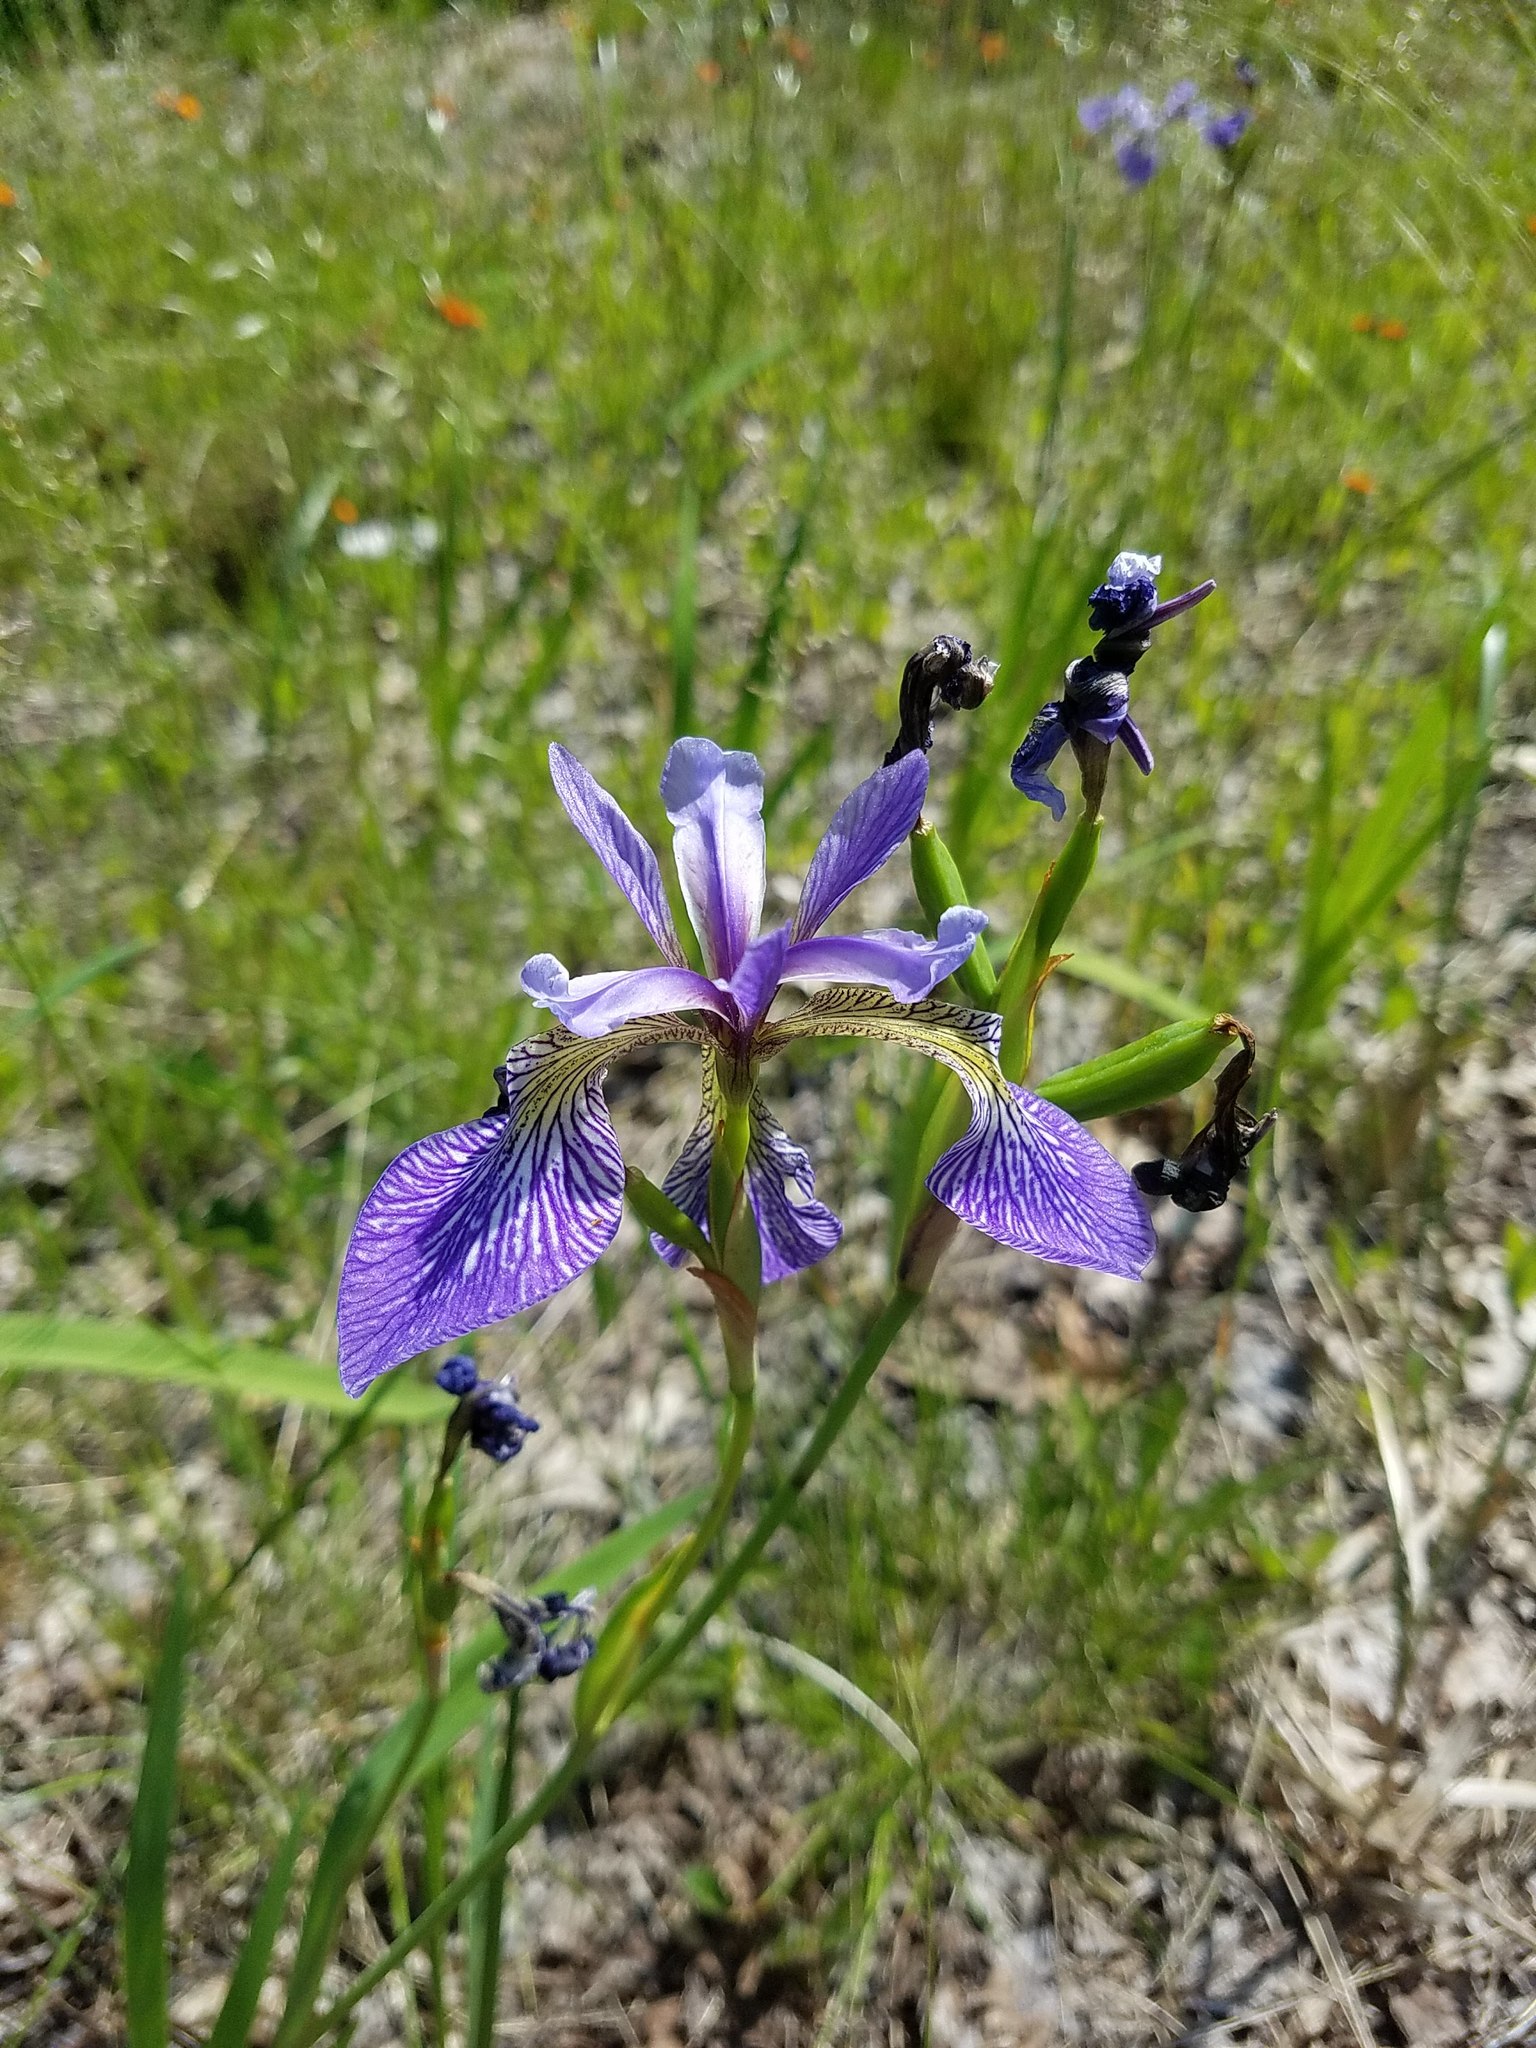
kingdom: Plantae
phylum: Tracheophyta
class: Liliopsida
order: Asparagales
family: Iridaceae
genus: Iris
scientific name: Iris versicolor
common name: Purple iris
